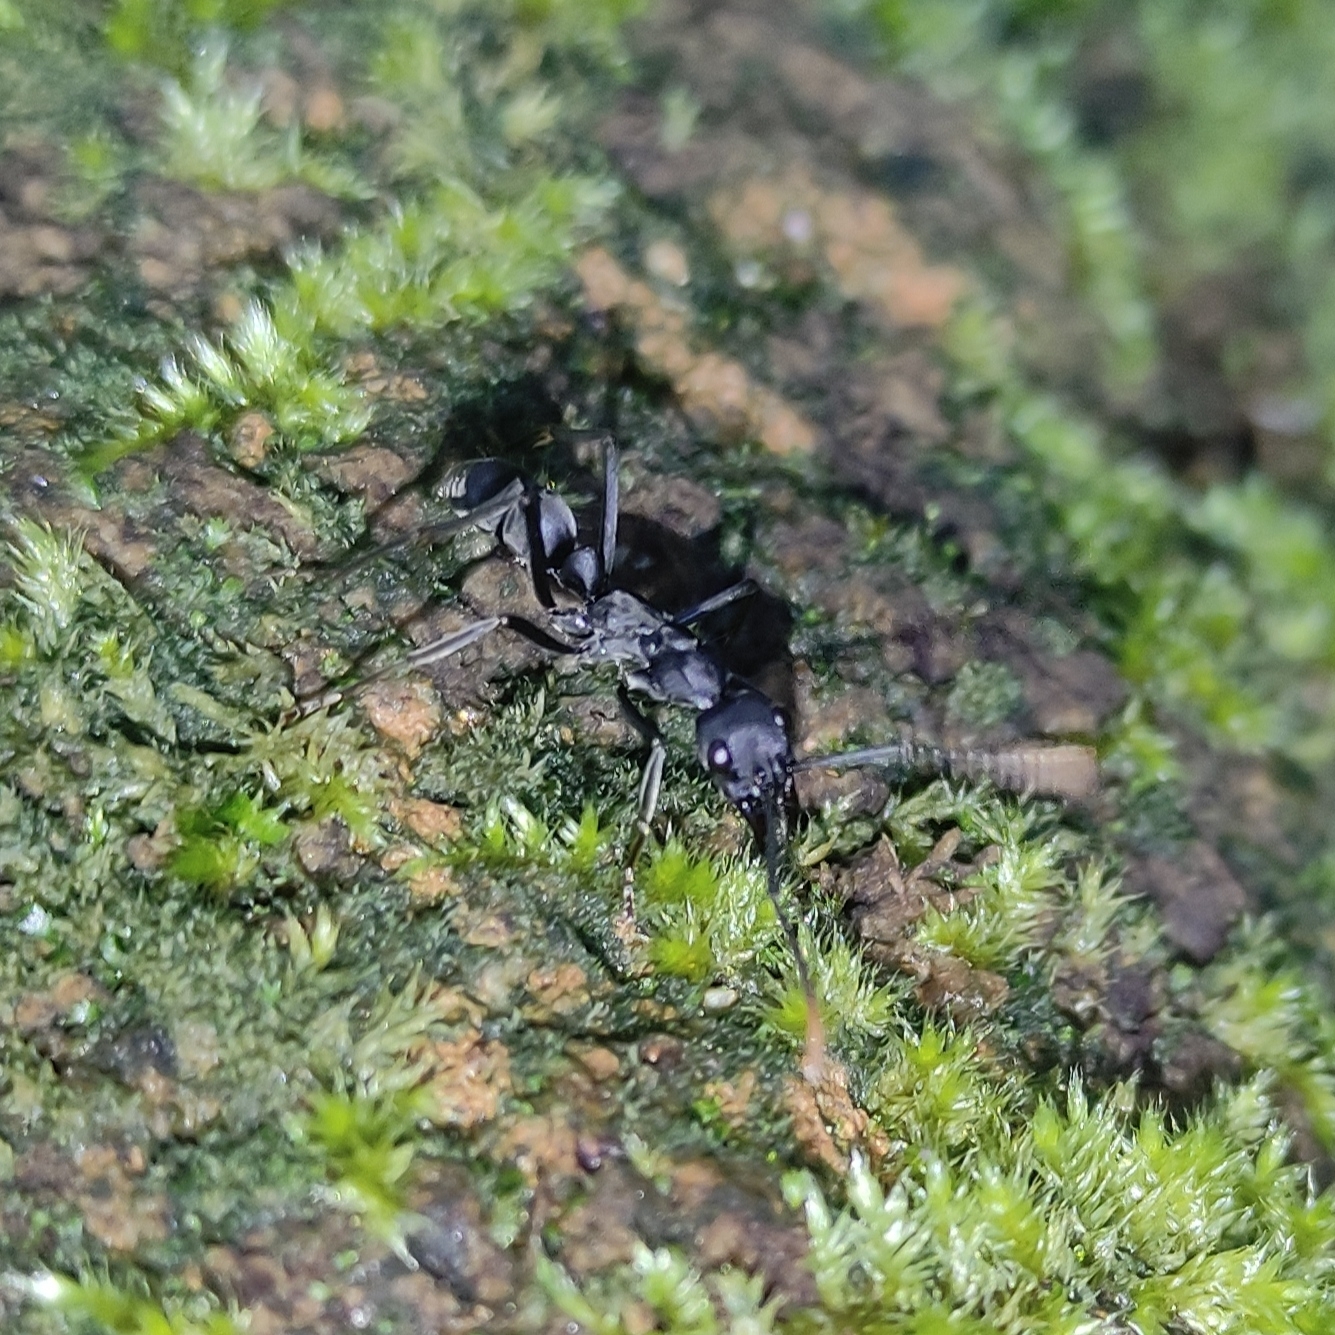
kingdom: Animalia
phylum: Arthropoda
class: Insecta
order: Hymenoptera
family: Formicidae
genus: Pachycondyla
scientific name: Pachycondyla apicalis
